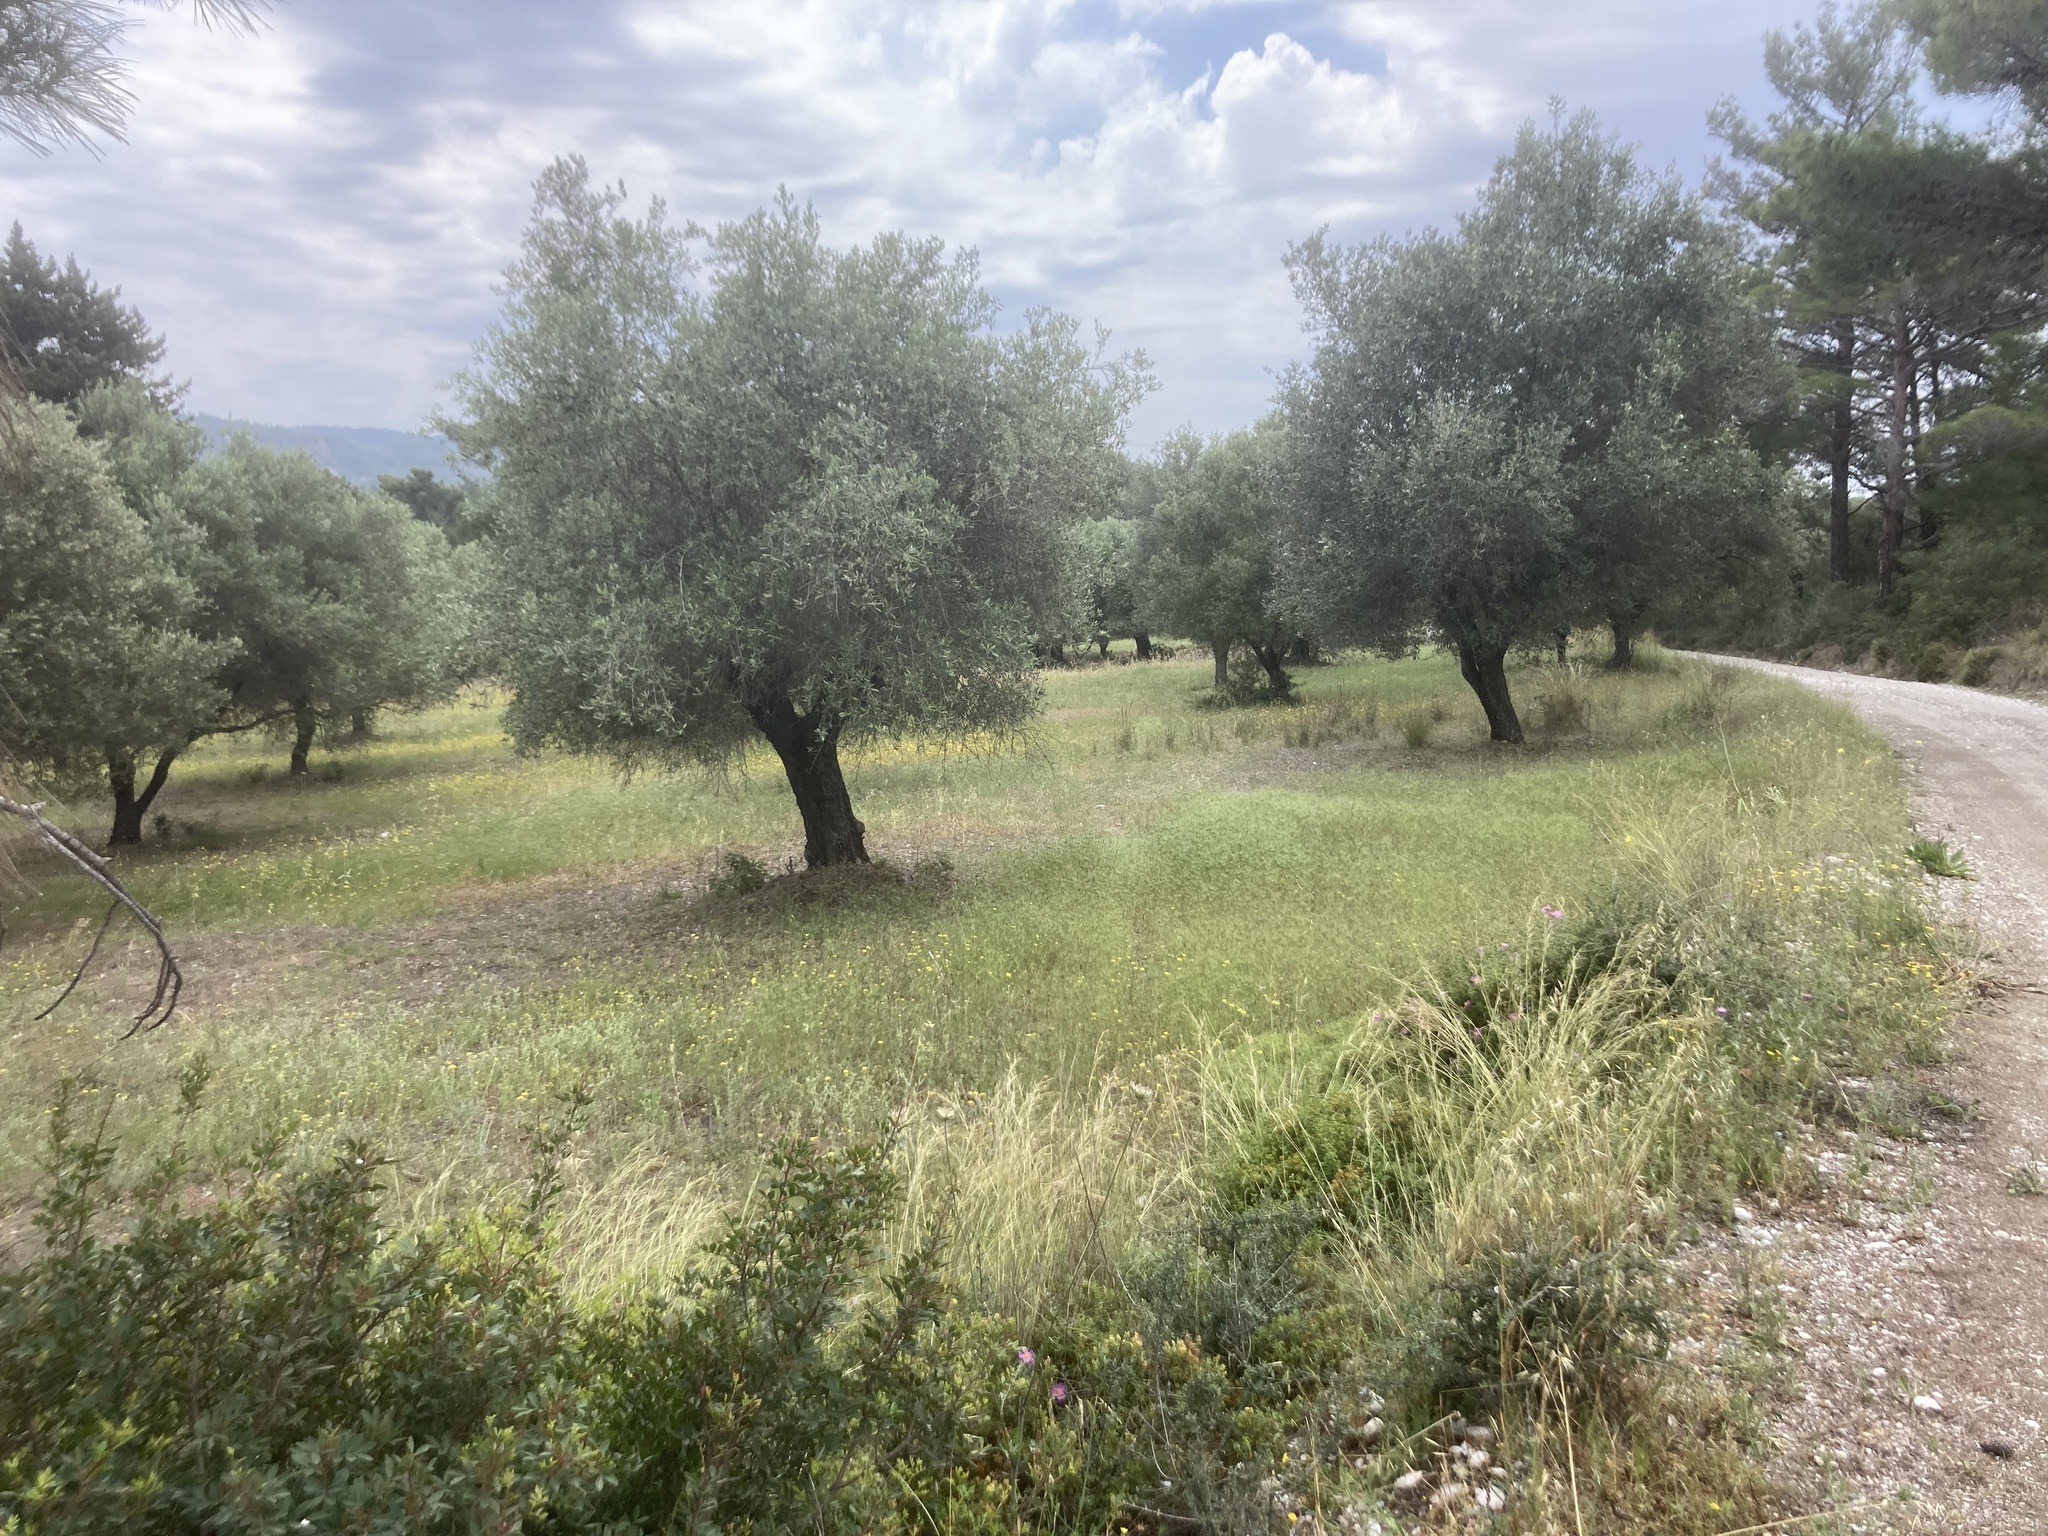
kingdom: Plantae
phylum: Tracheophyta
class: Magnoliopsida
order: Lamiales
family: Oleaceae
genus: Olea
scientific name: Olea europaea
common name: Olive
